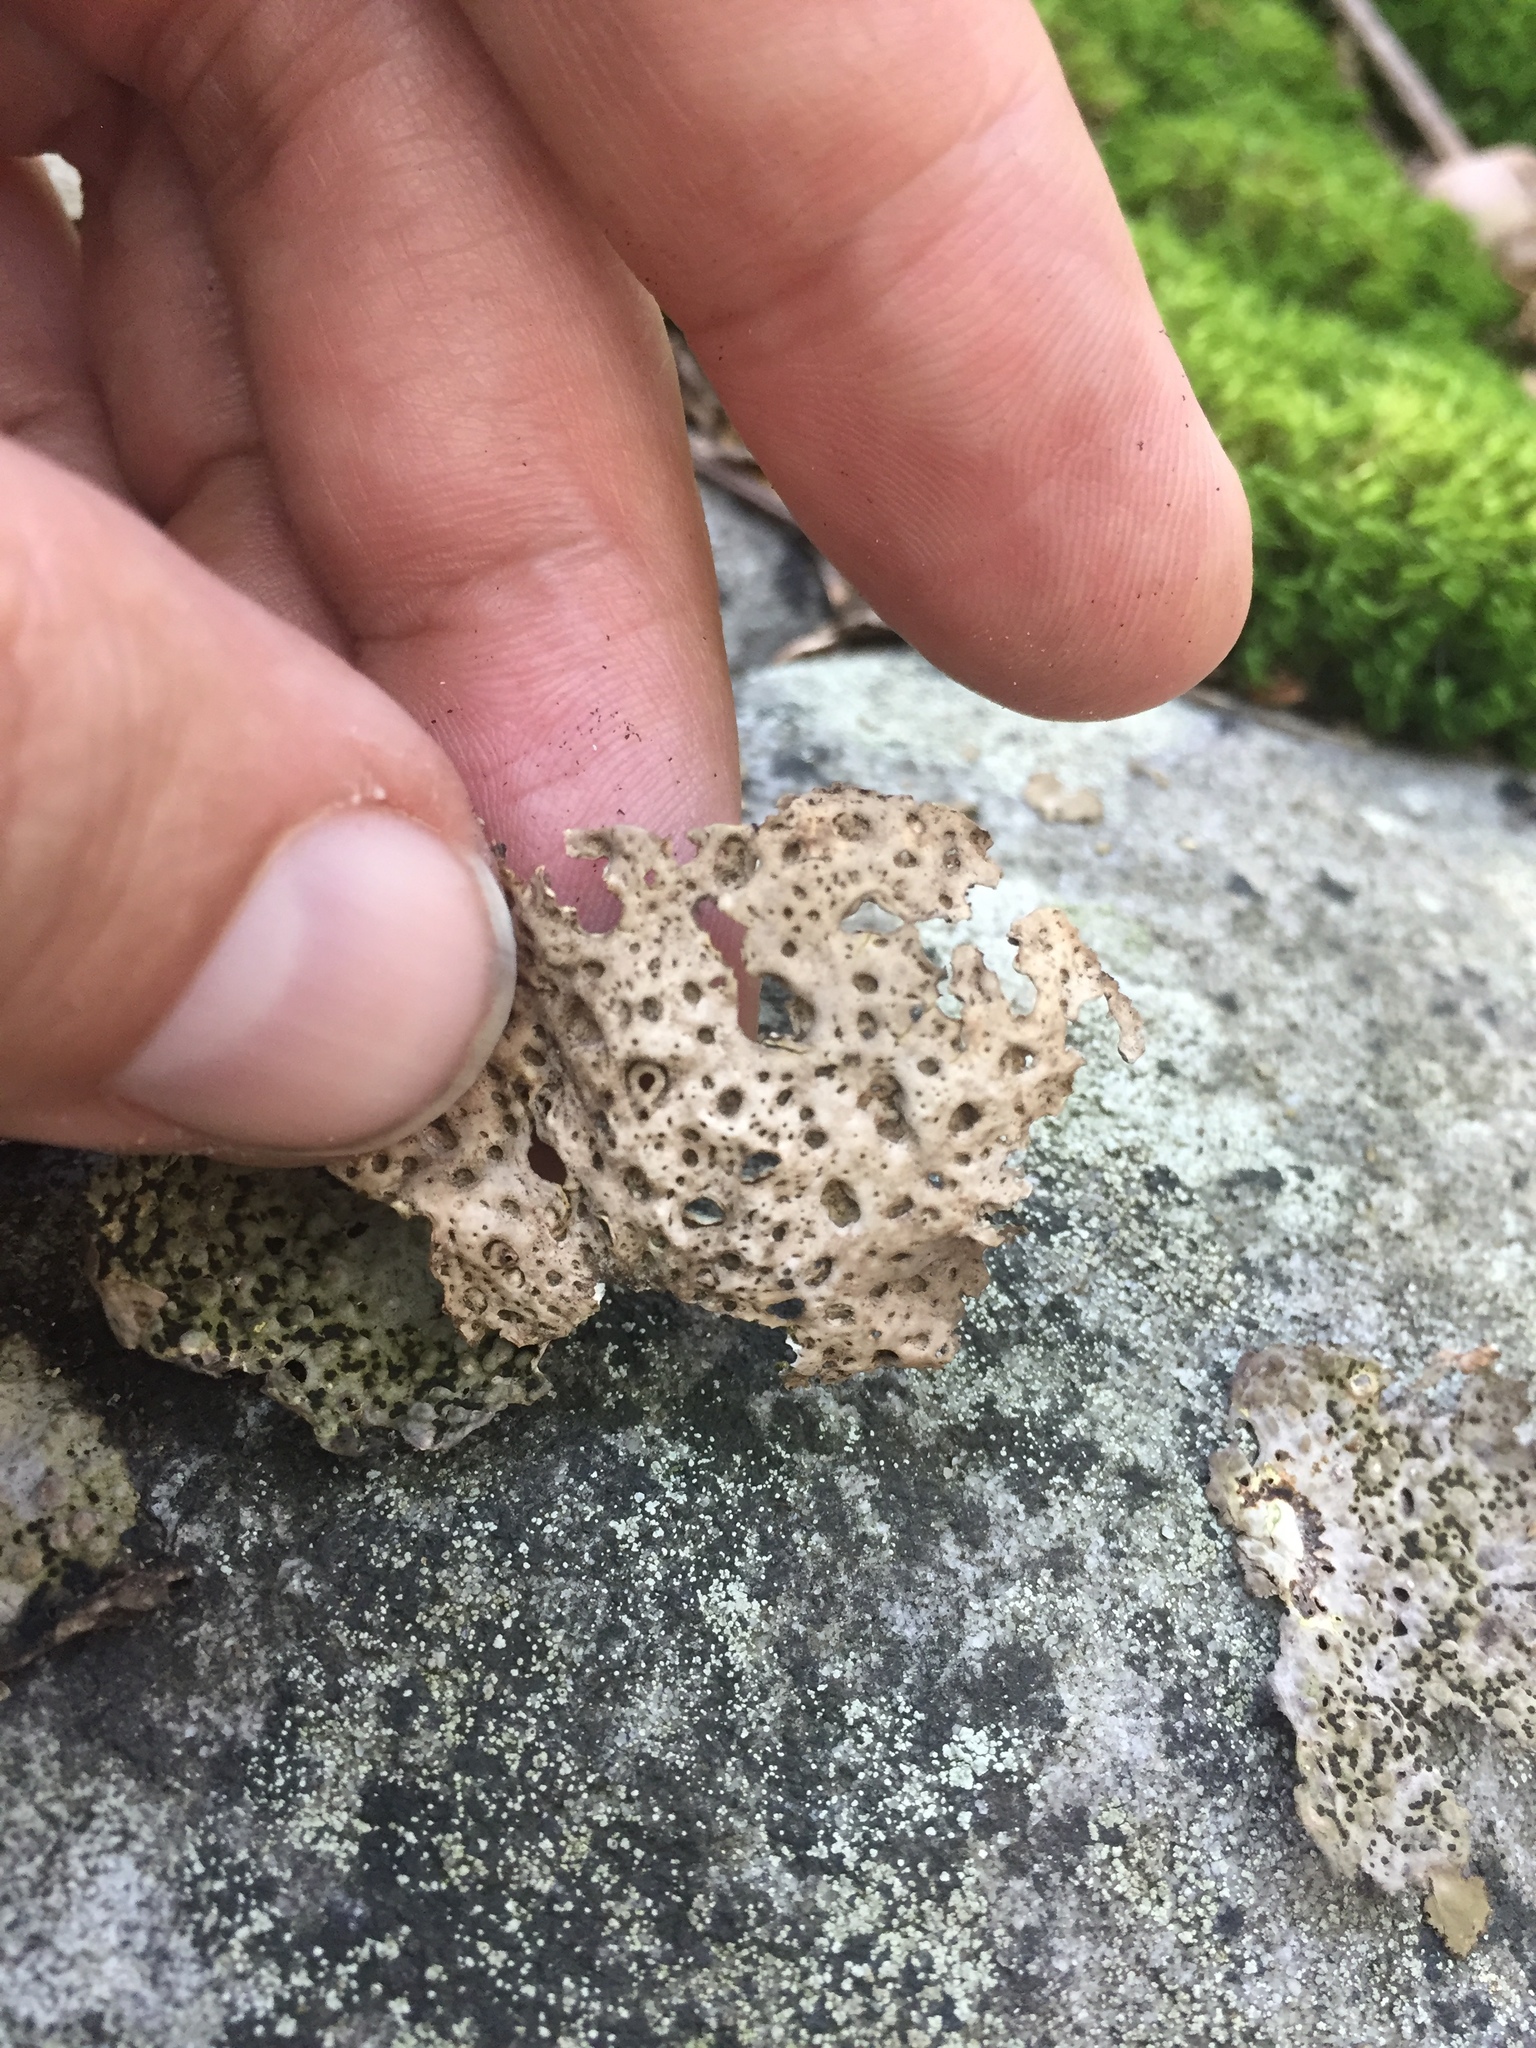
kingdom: Fungi
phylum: Ascomycota
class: Lecanoromycetes
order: Umbilicariales
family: Umbilicariaceae
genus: Lasallia
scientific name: Lasallia papulosa
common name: Common toadskin lichen
